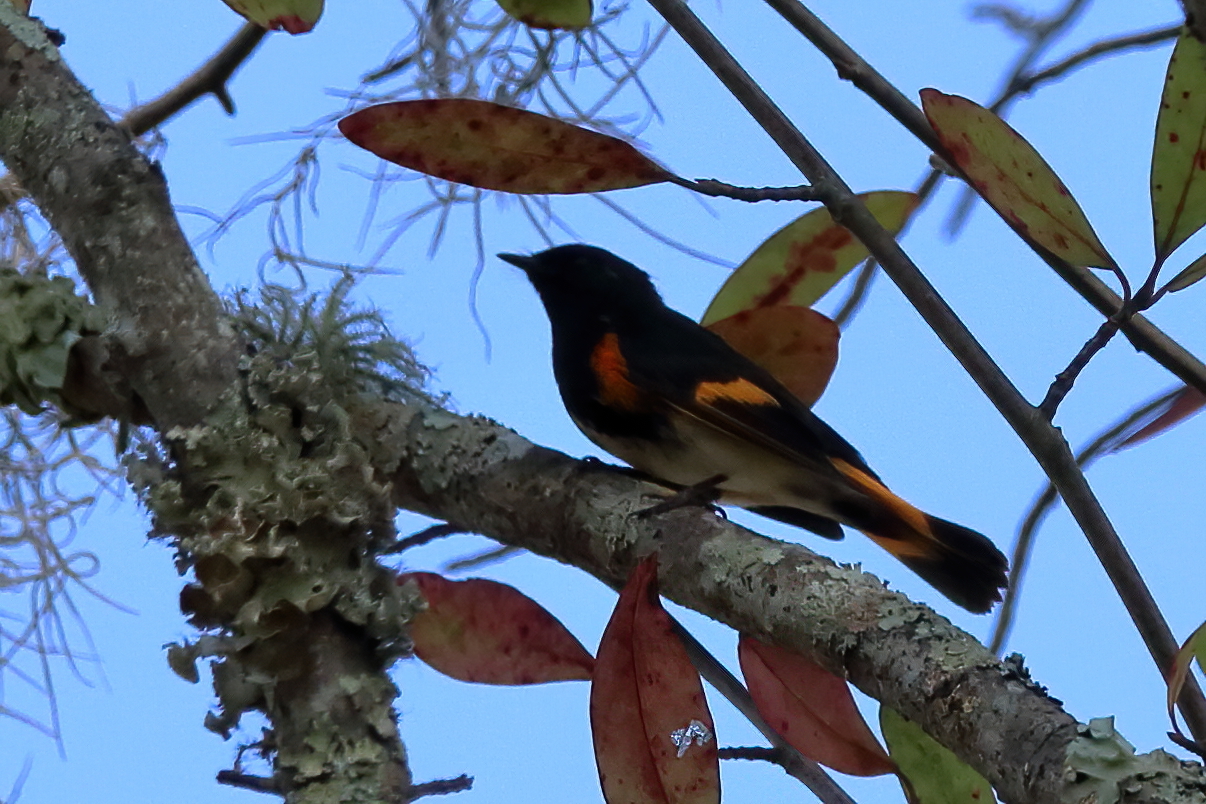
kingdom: Animalia
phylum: Chordata
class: Aves
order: Passeriformes
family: Parulidae
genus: Setophaga
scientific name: Setophaga ruticilla
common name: American redstart
